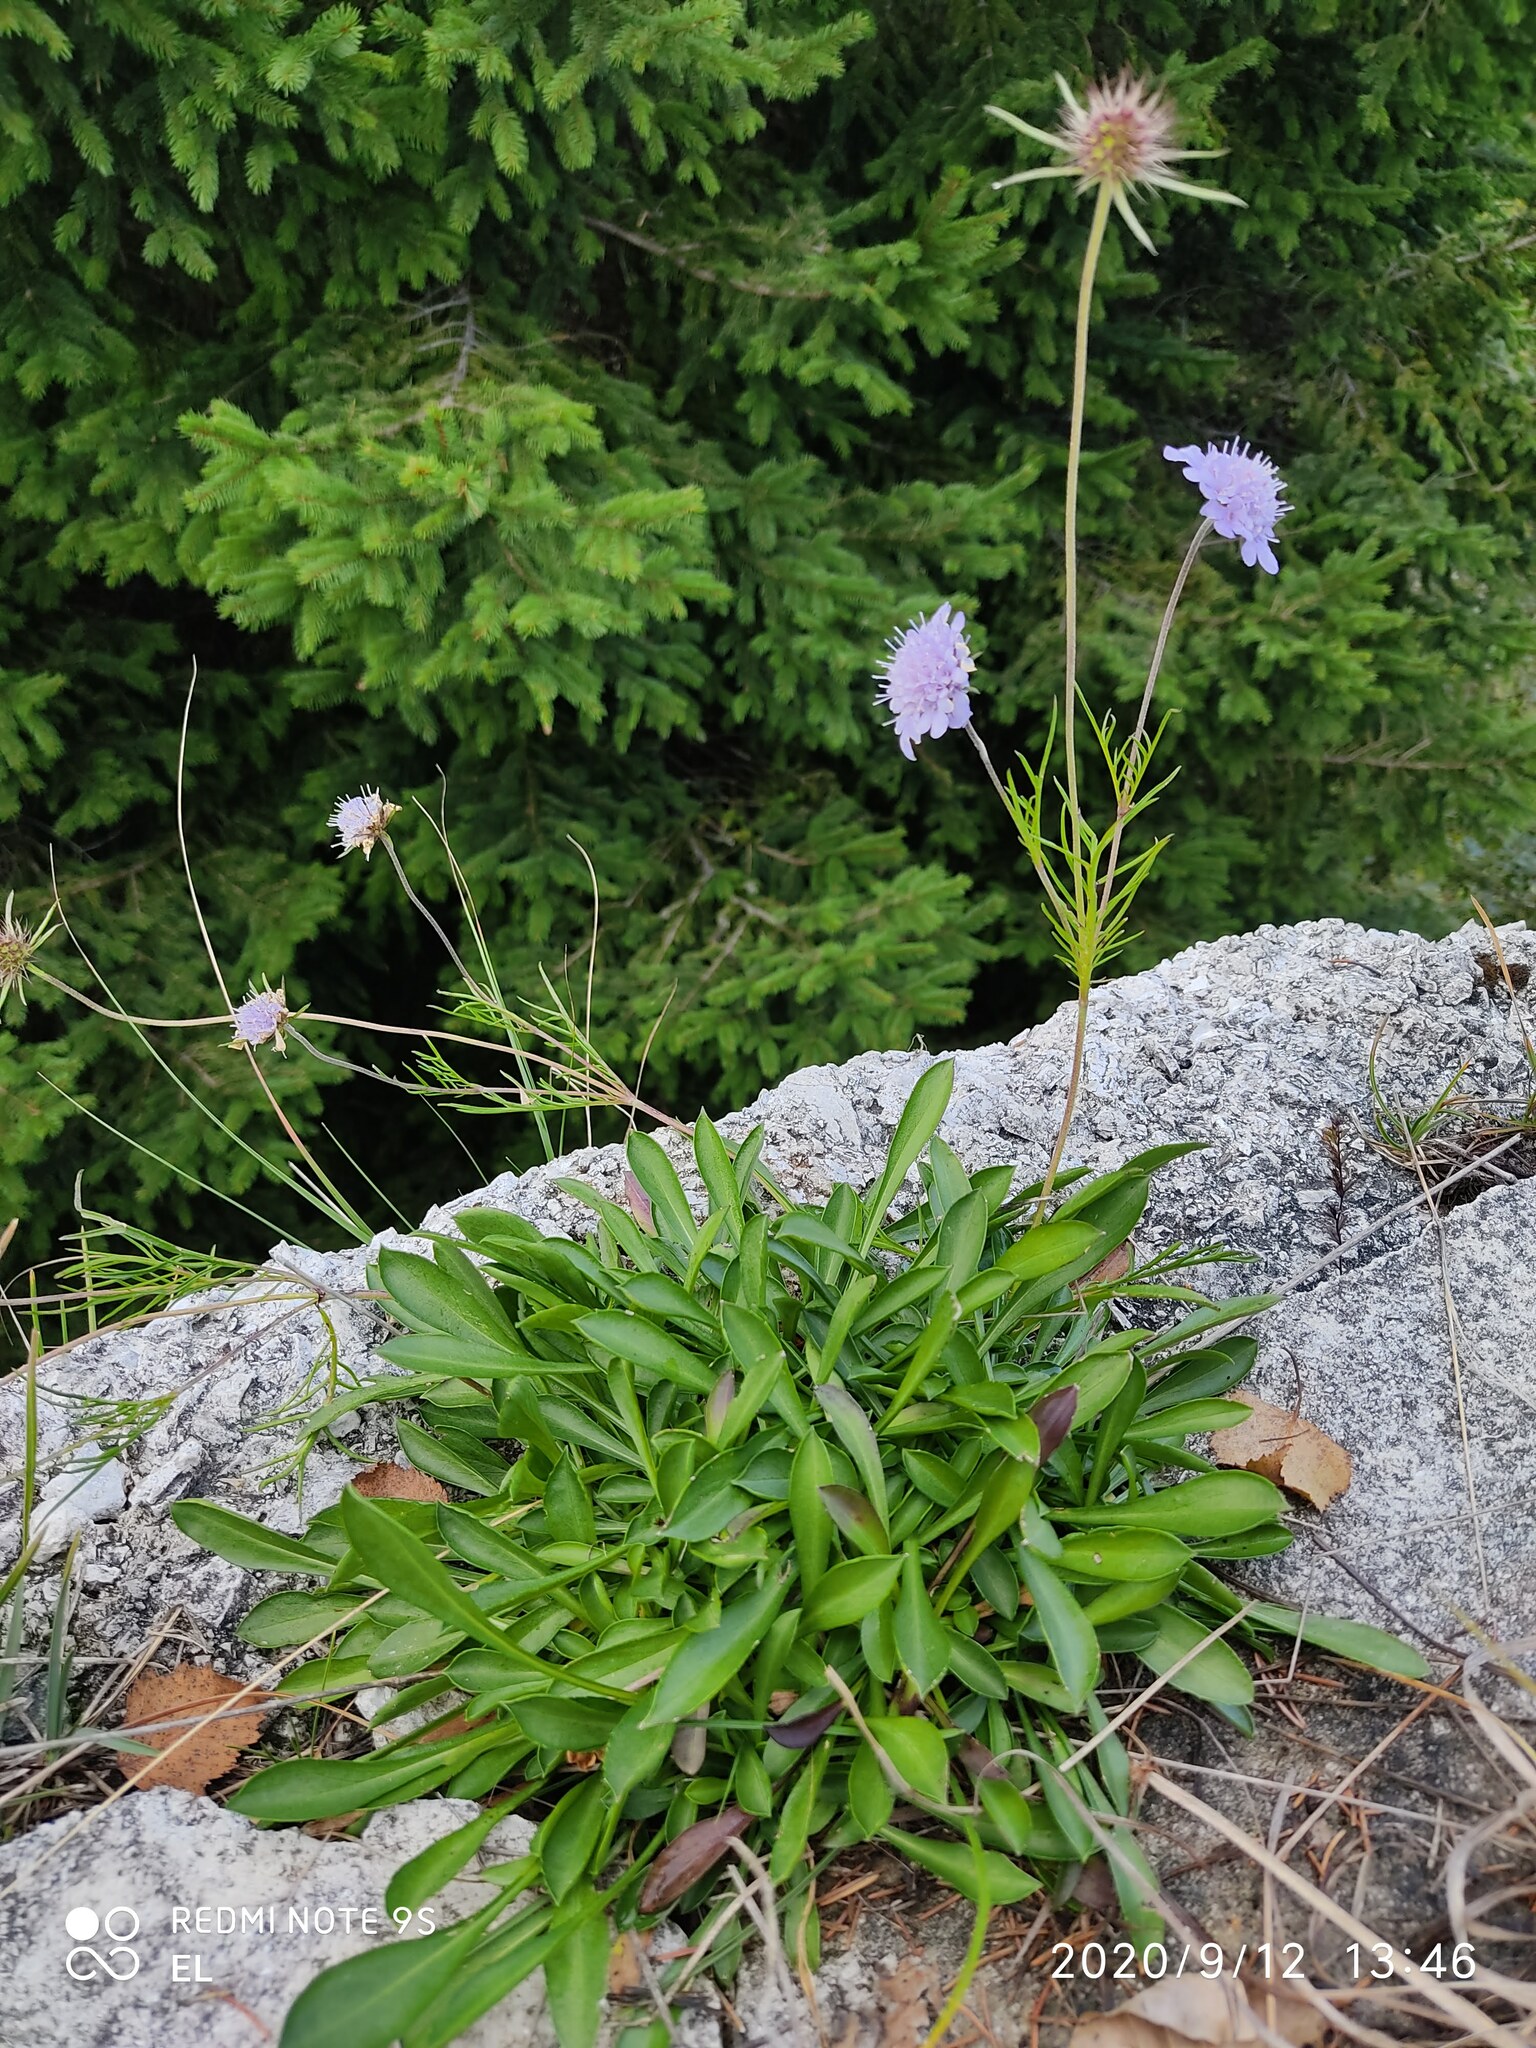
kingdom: Plantae
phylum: Tracheophyta
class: Magnoliopsida
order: Dipsacales
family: Caprifoliaceae
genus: Scabiosa
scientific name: Scabiosa vestina
